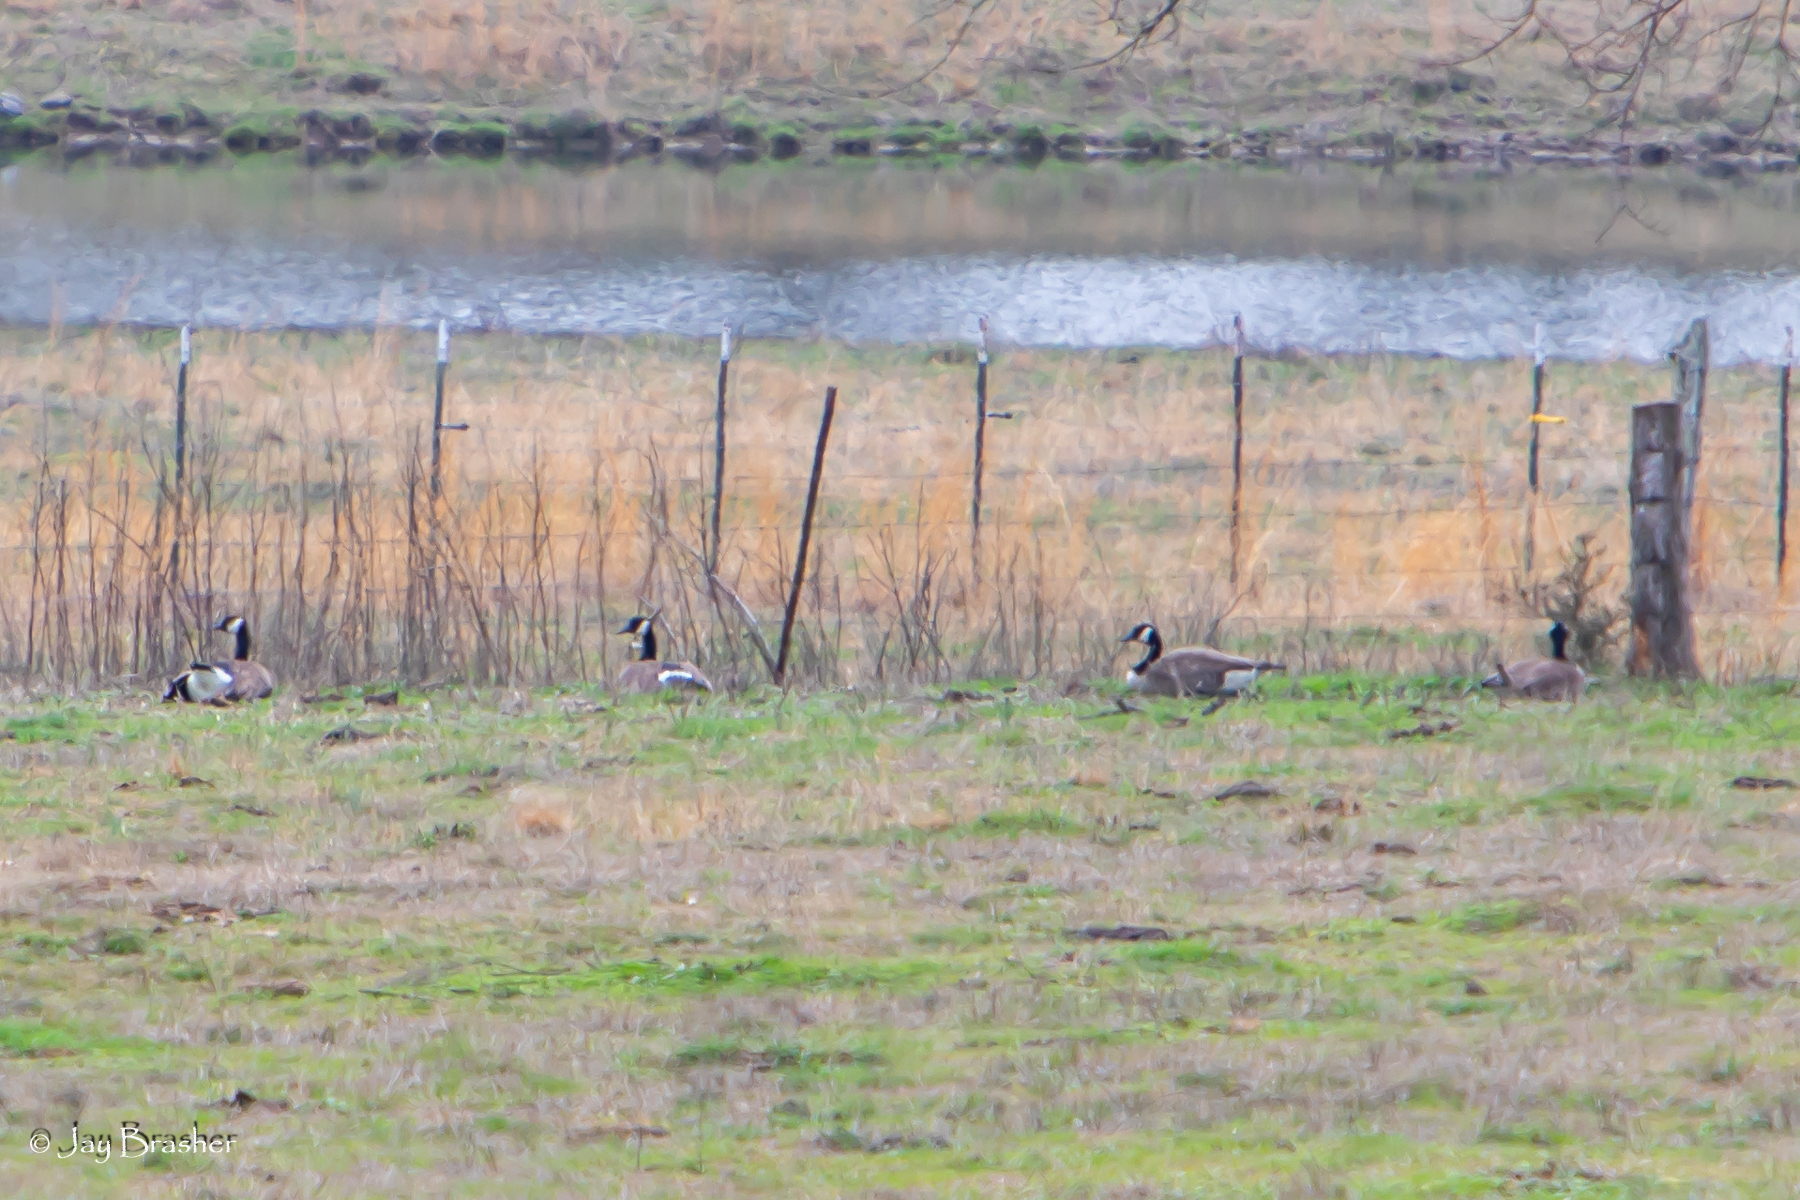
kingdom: Animalia
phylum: Chordata
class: Aves
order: Anseriformes
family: Anatidae
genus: Branta
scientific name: Branta canadensis
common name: Canada goose
